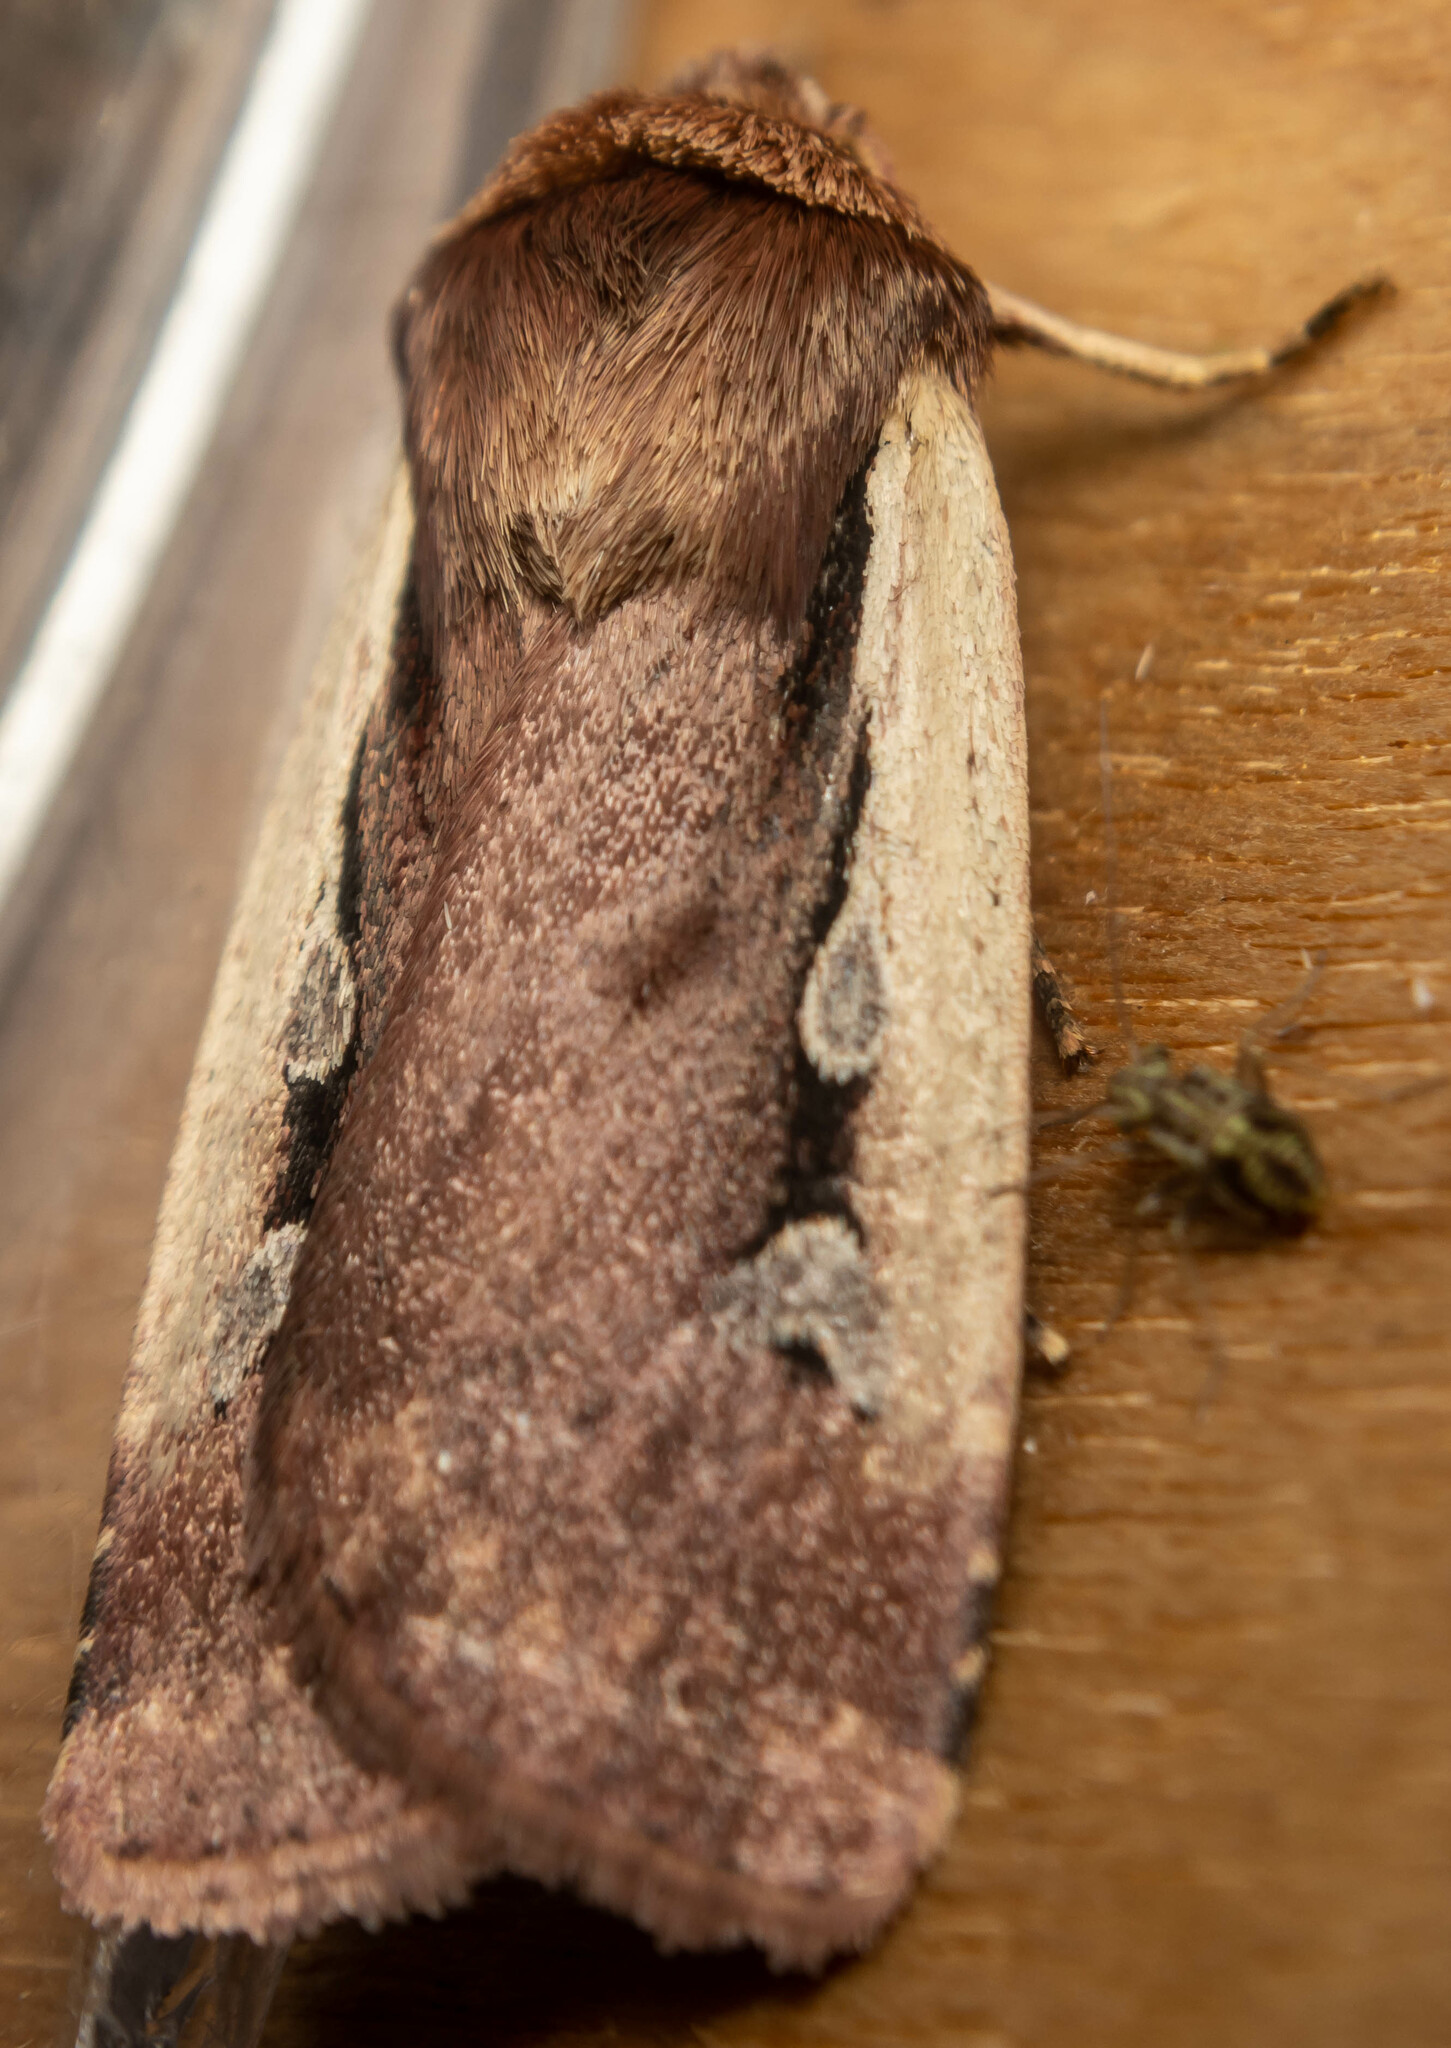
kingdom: Animalia
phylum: Arthropoda
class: Insecta
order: Lepidoptera
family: Noctuidae
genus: Ochropleura
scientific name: Ochropleura plecta
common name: Flame shoulder
